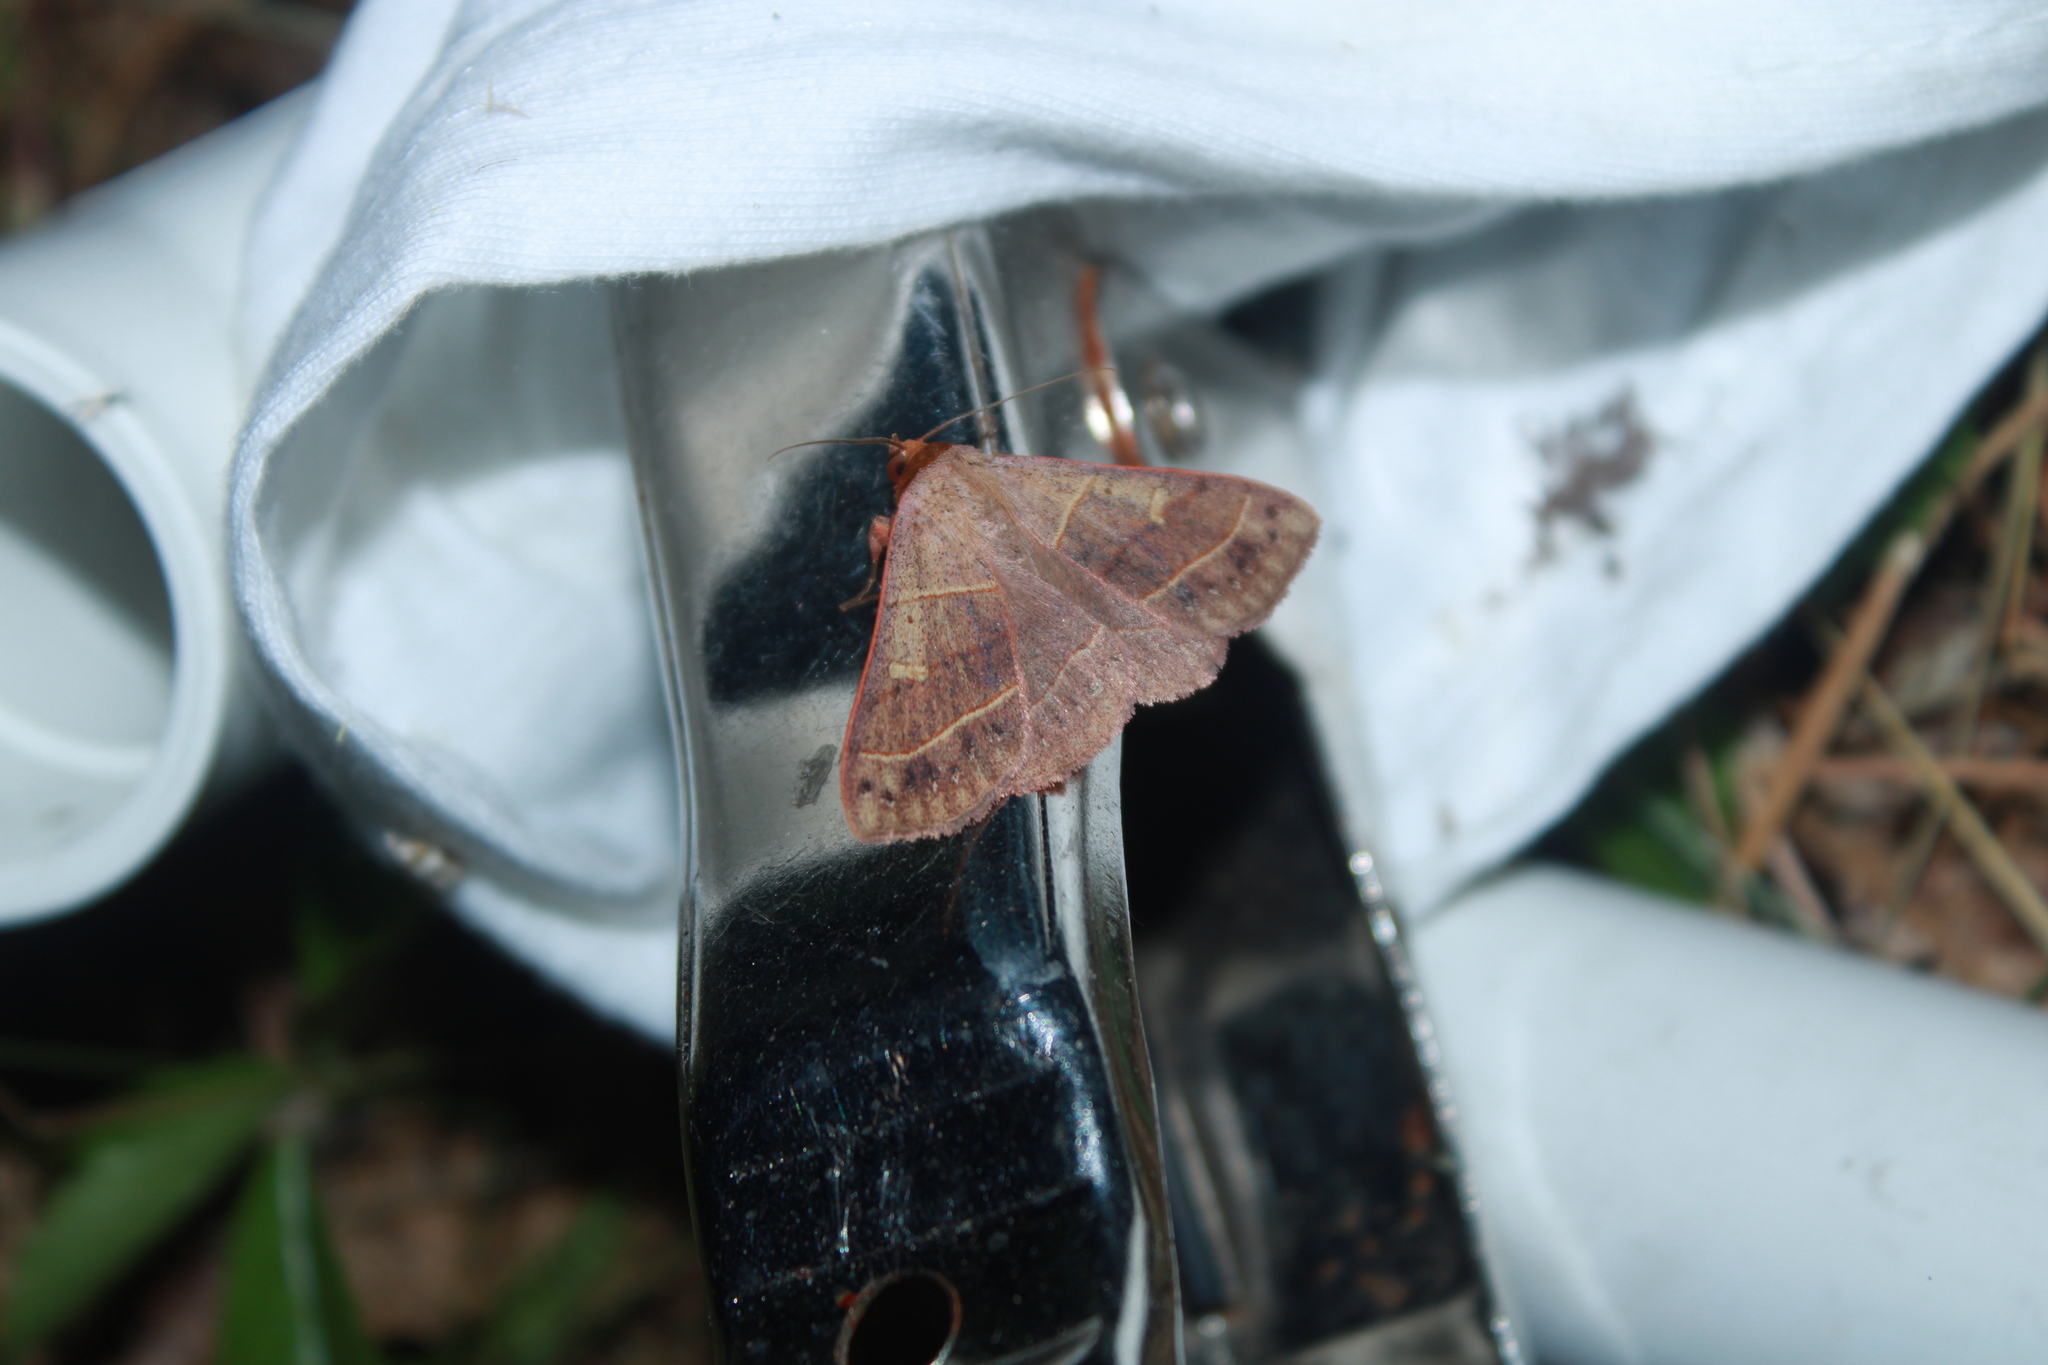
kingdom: Animalia
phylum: Arthropoda
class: Insecta
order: Lepidoptera
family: Erebidae
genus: Panopoda
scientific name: Panopoda rufimargo
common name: Red-lined panopoda moth
